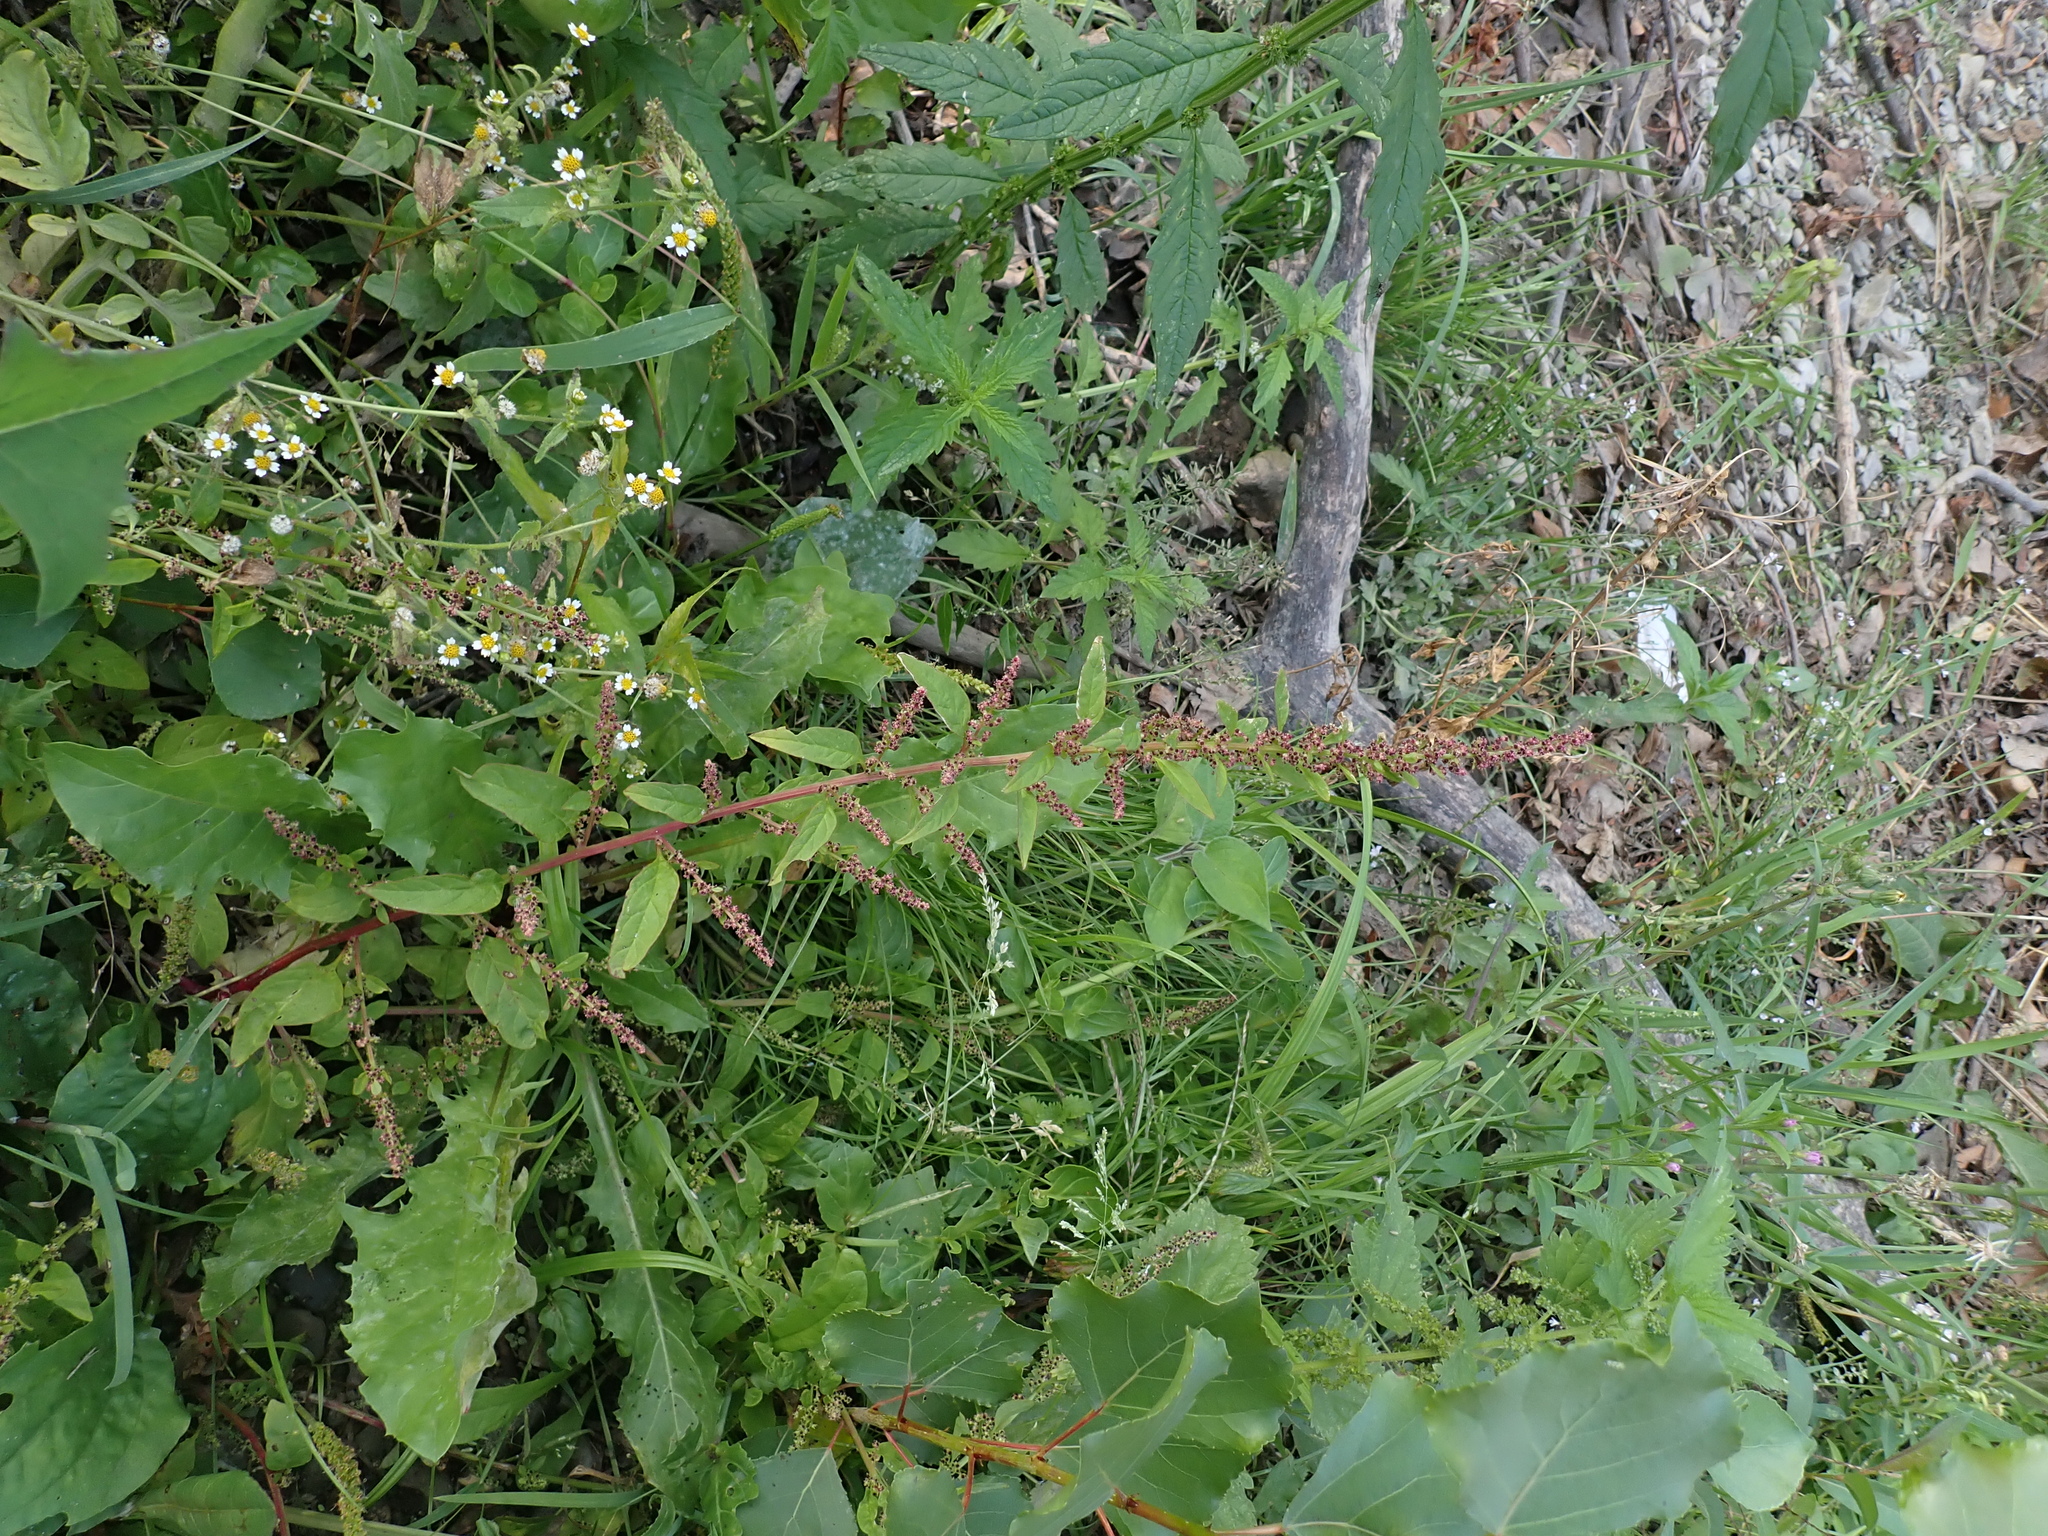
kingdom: Plantae
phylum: Tracheophyta
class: Magnoliopsida
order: Caryophyllales
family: Amaranthaceae
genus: Lipandra
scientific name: Lipandra polysperma
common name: Many-seed goosefoot
